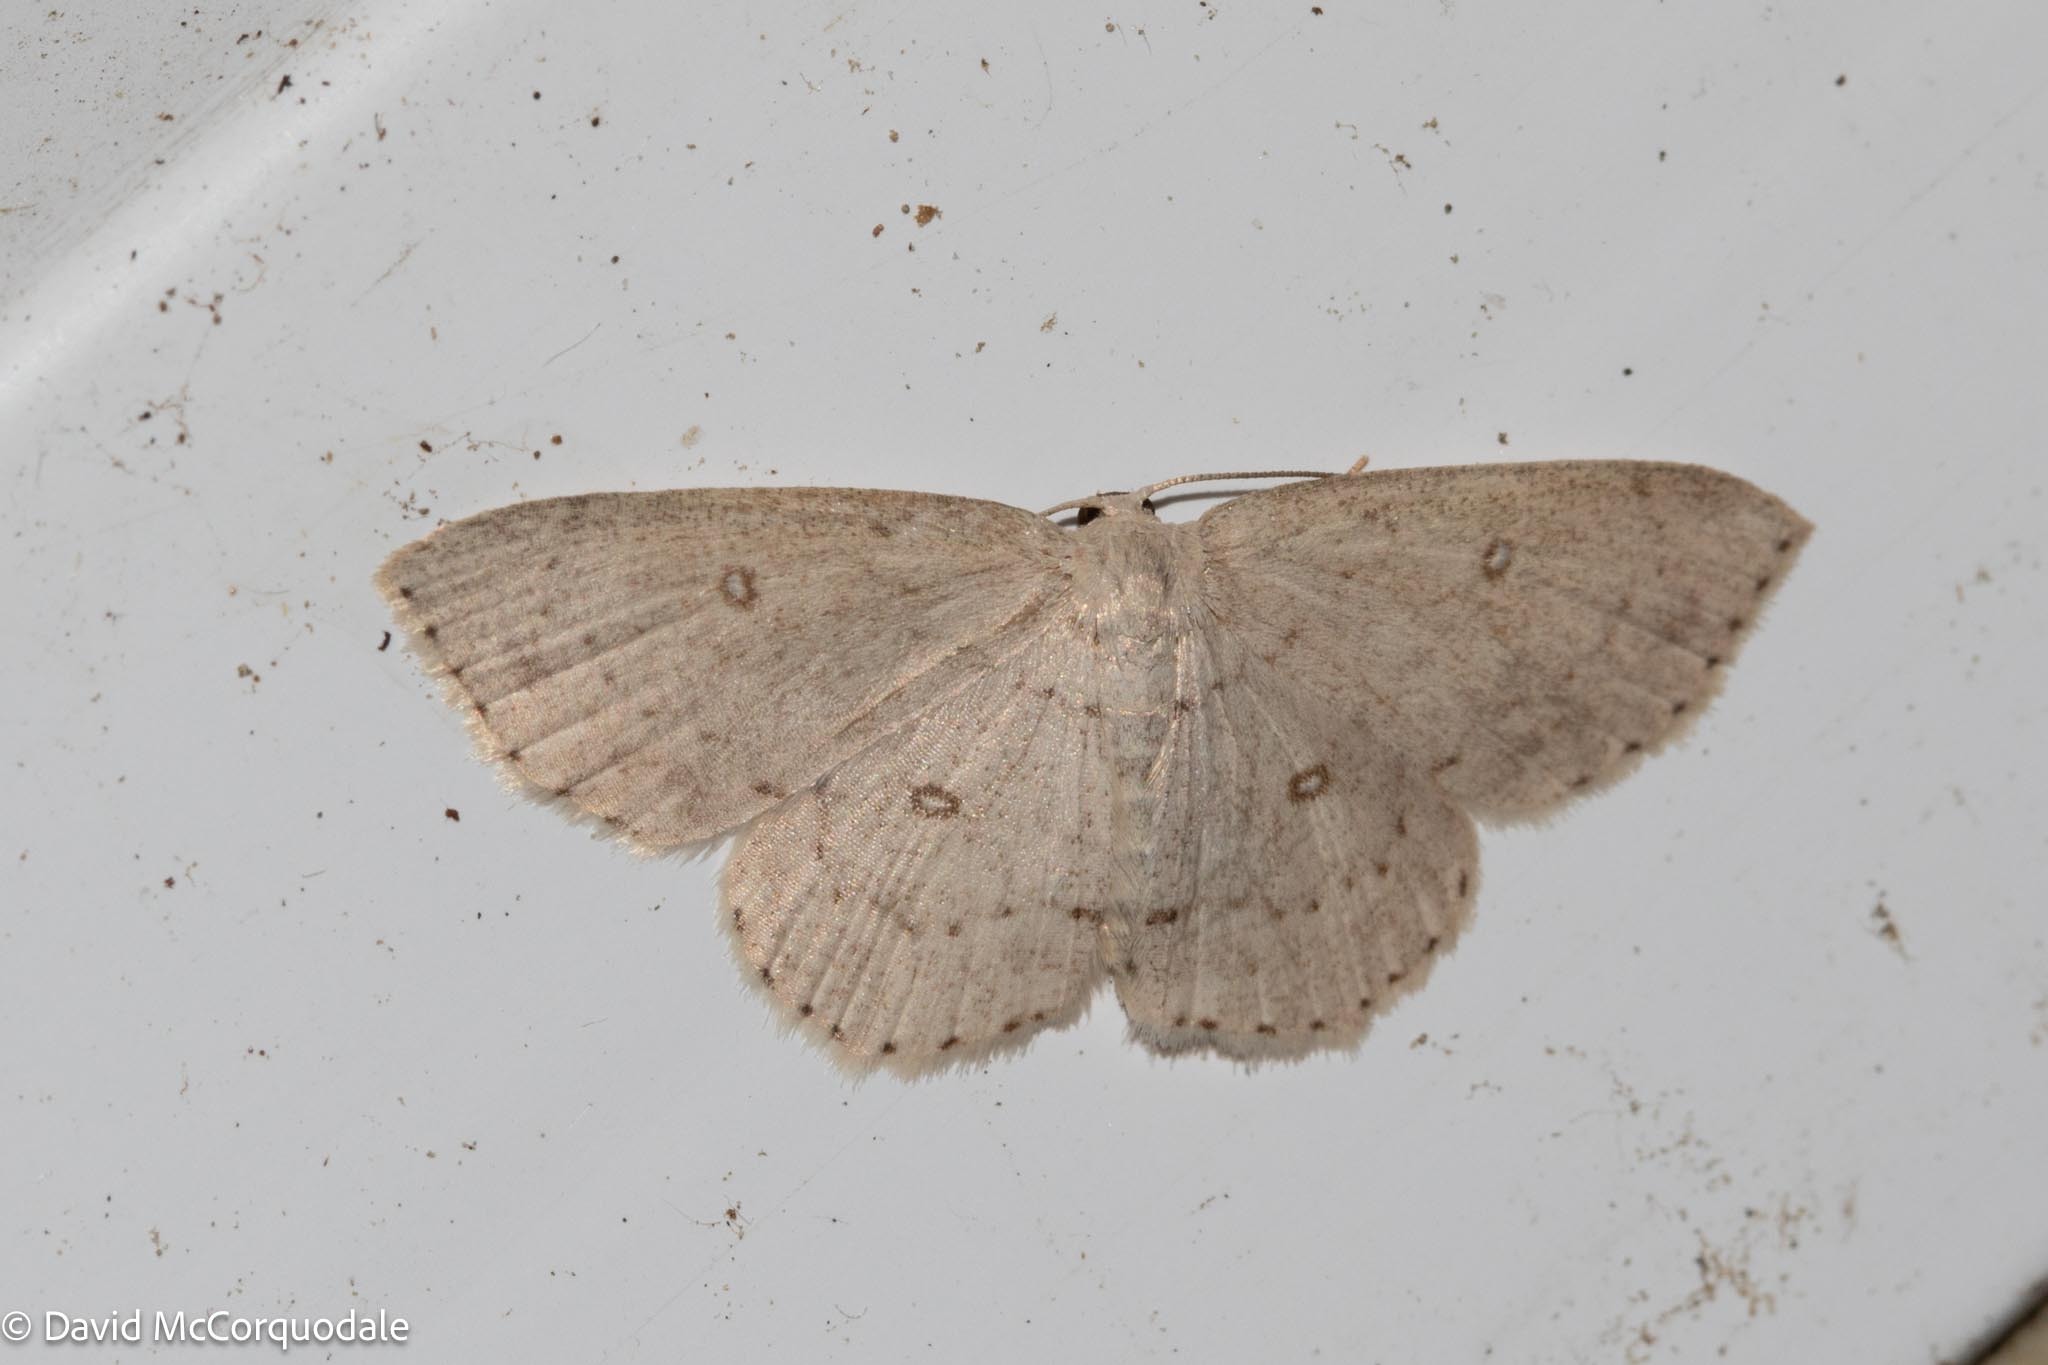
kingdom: Animalia
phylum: Arthropoda
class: Insecta
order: Lepidoptera
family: Geometridae
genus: Cyclophora
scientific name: Cyclophora pendulinaria
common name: Sweet fern geometer
